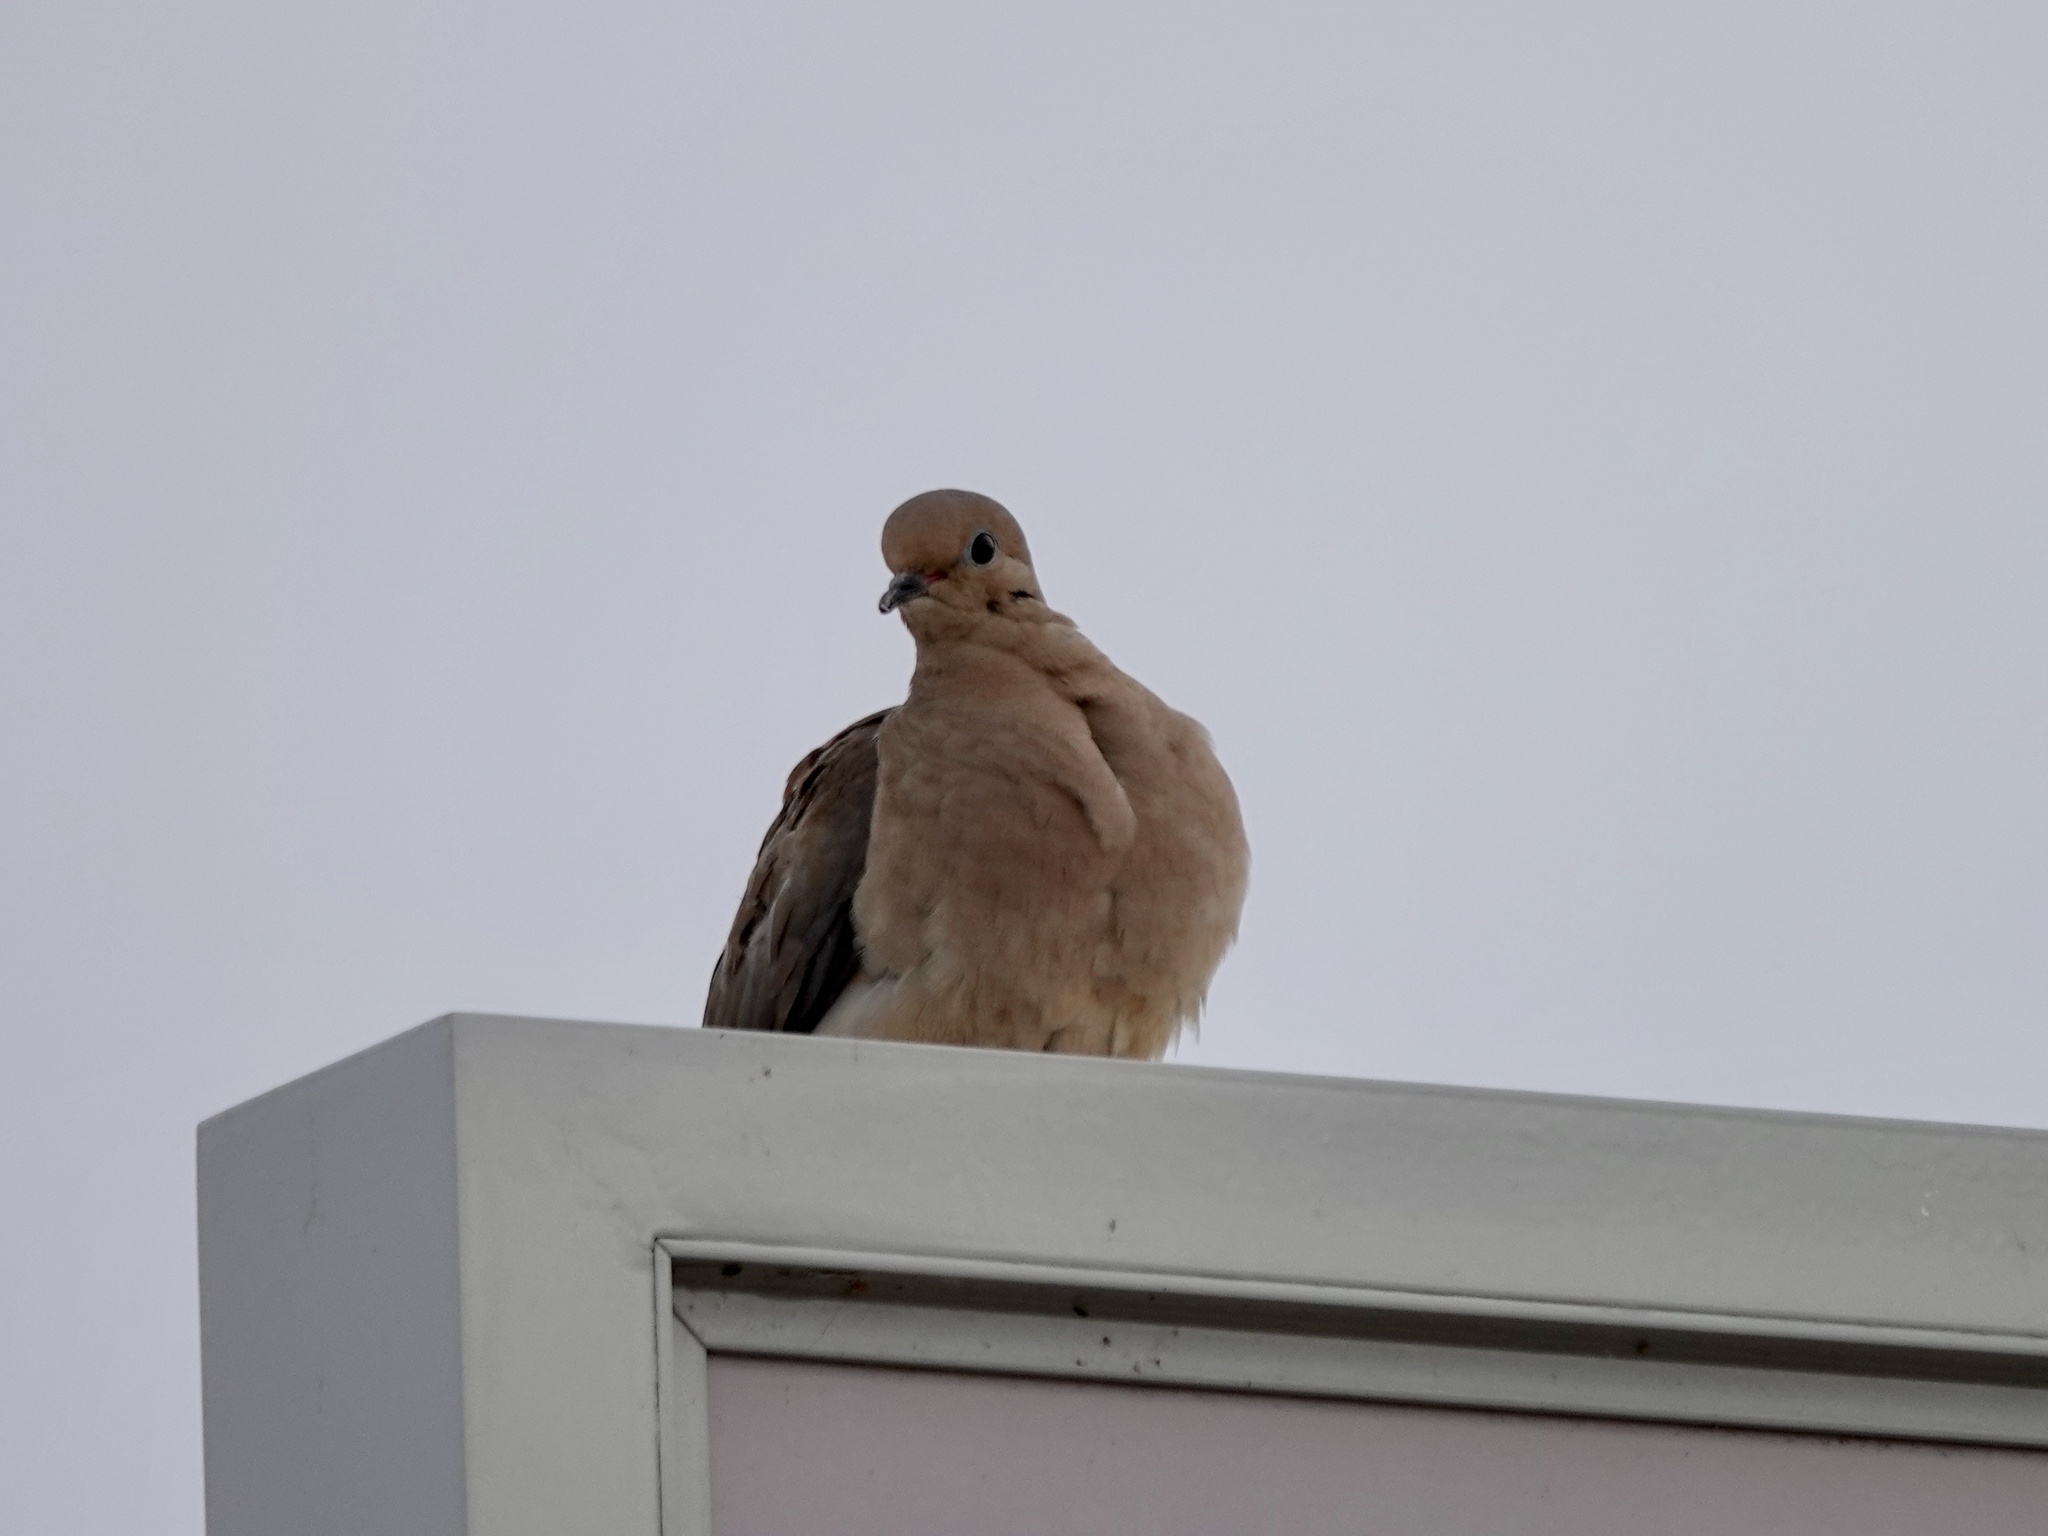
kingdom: Animalia
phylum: Chordata
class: Aves
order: Columbiformes
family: Columbidae
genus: Zenaida
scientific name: Zenaida macroura
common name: Mourning dove
